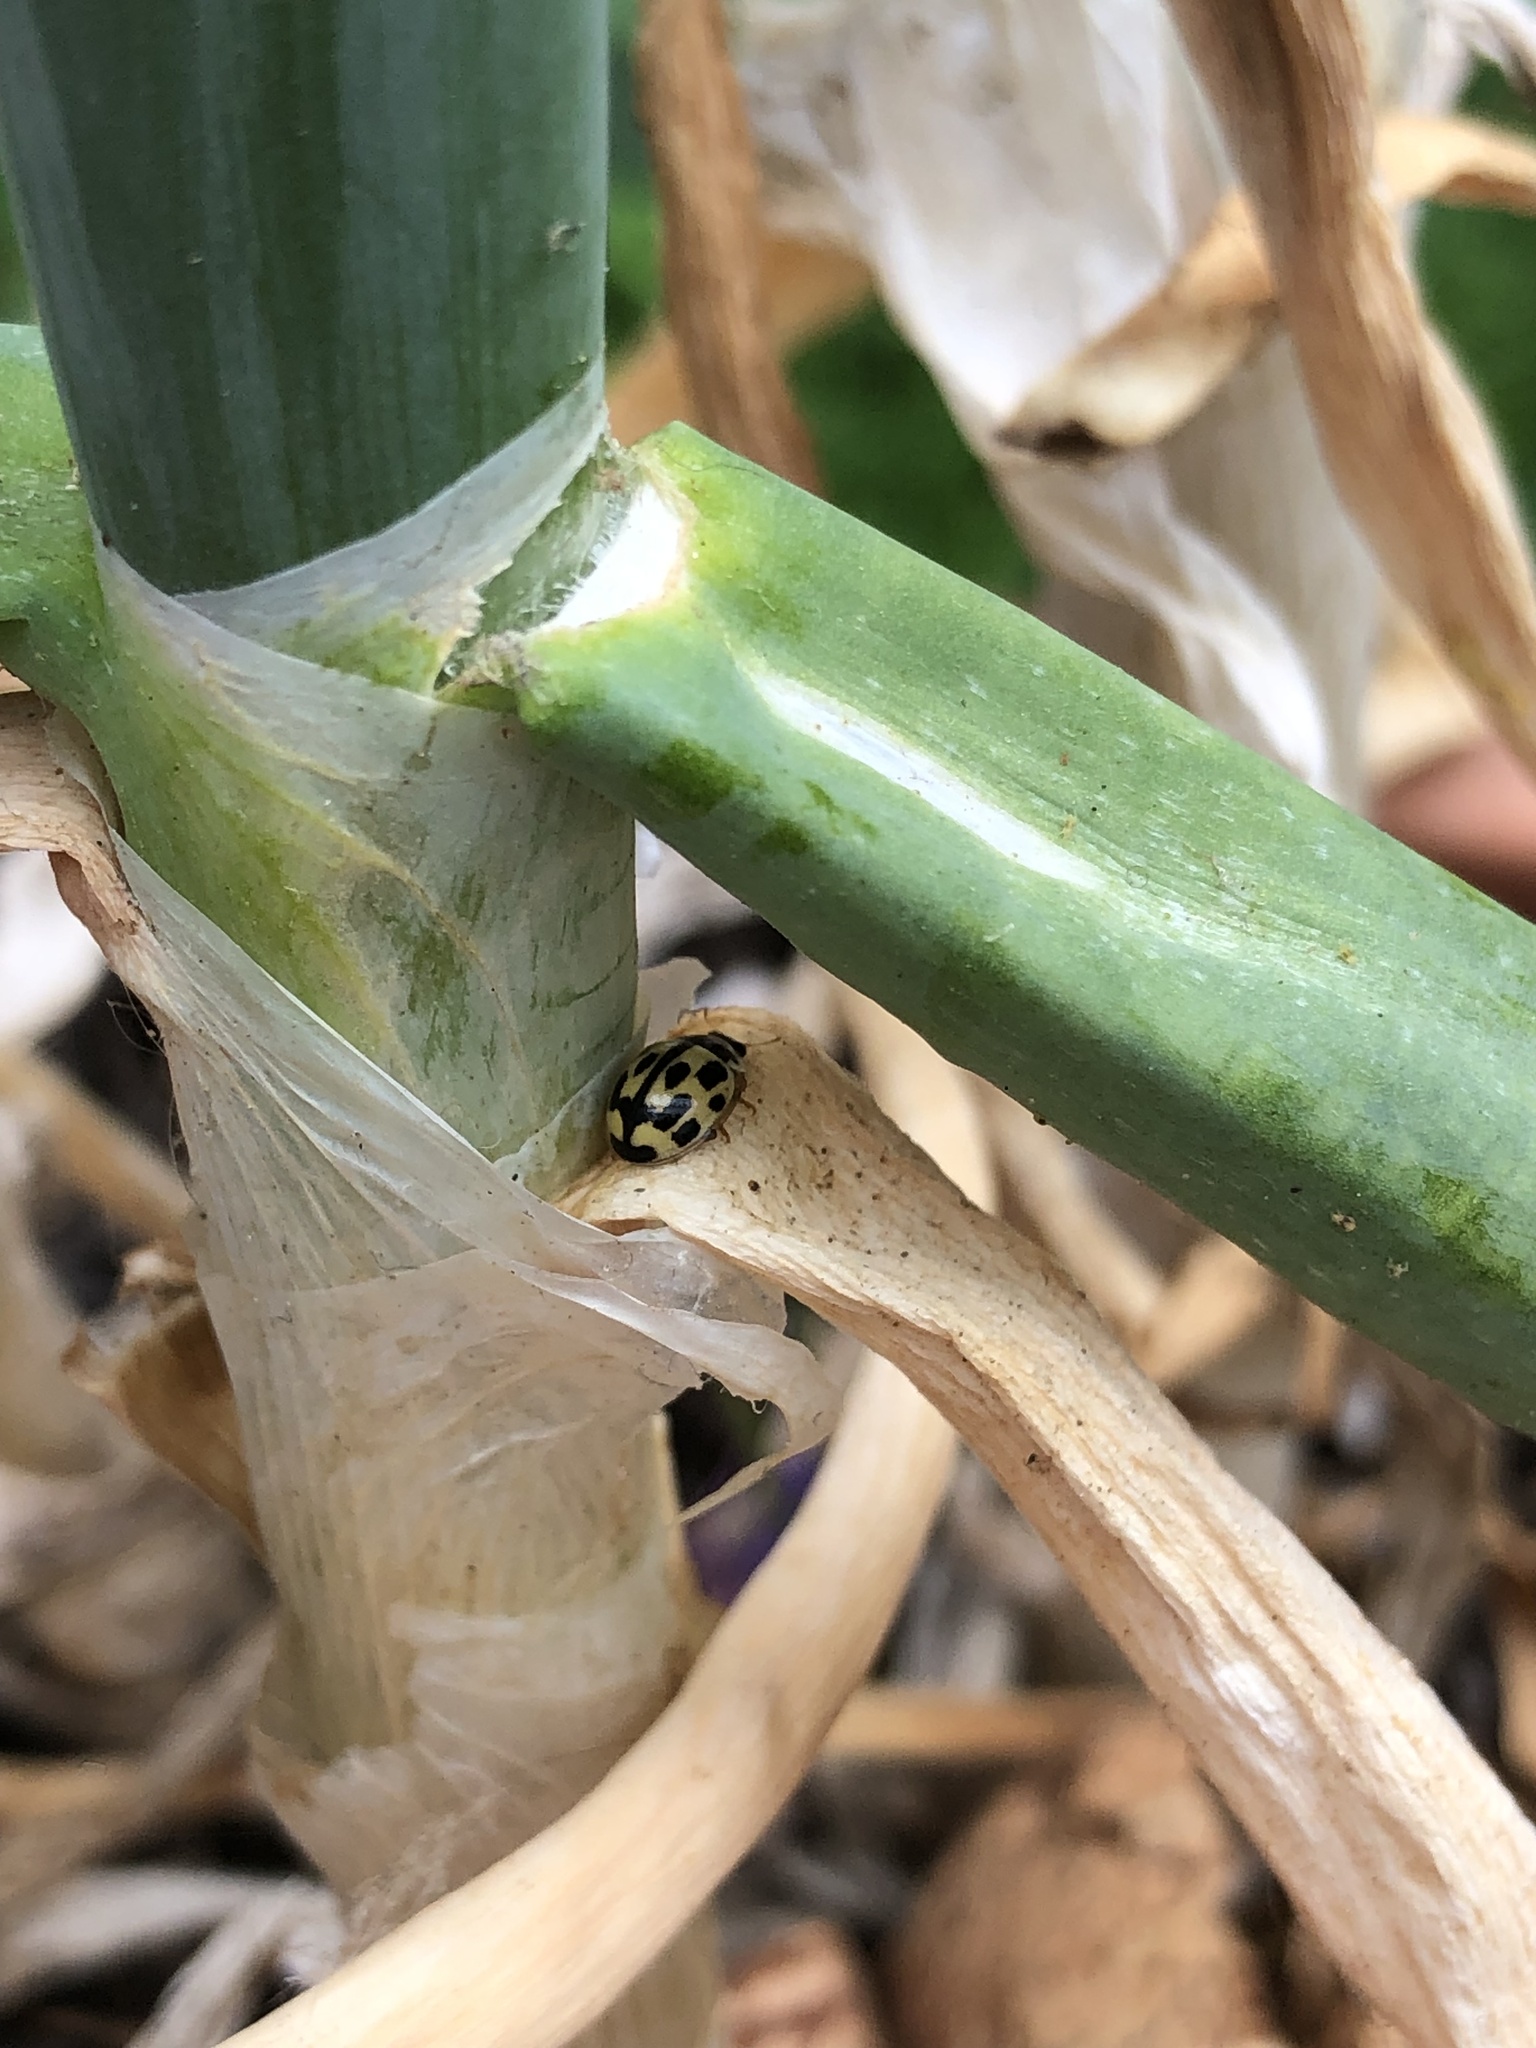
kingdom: Animalia
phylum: Arthropoda
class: Insecta
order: Coleoptera
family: Coccinellidae
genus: Propylaea
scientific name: Propylaea quatuordecimpunctata
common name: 14-spotted ladybird beetle
